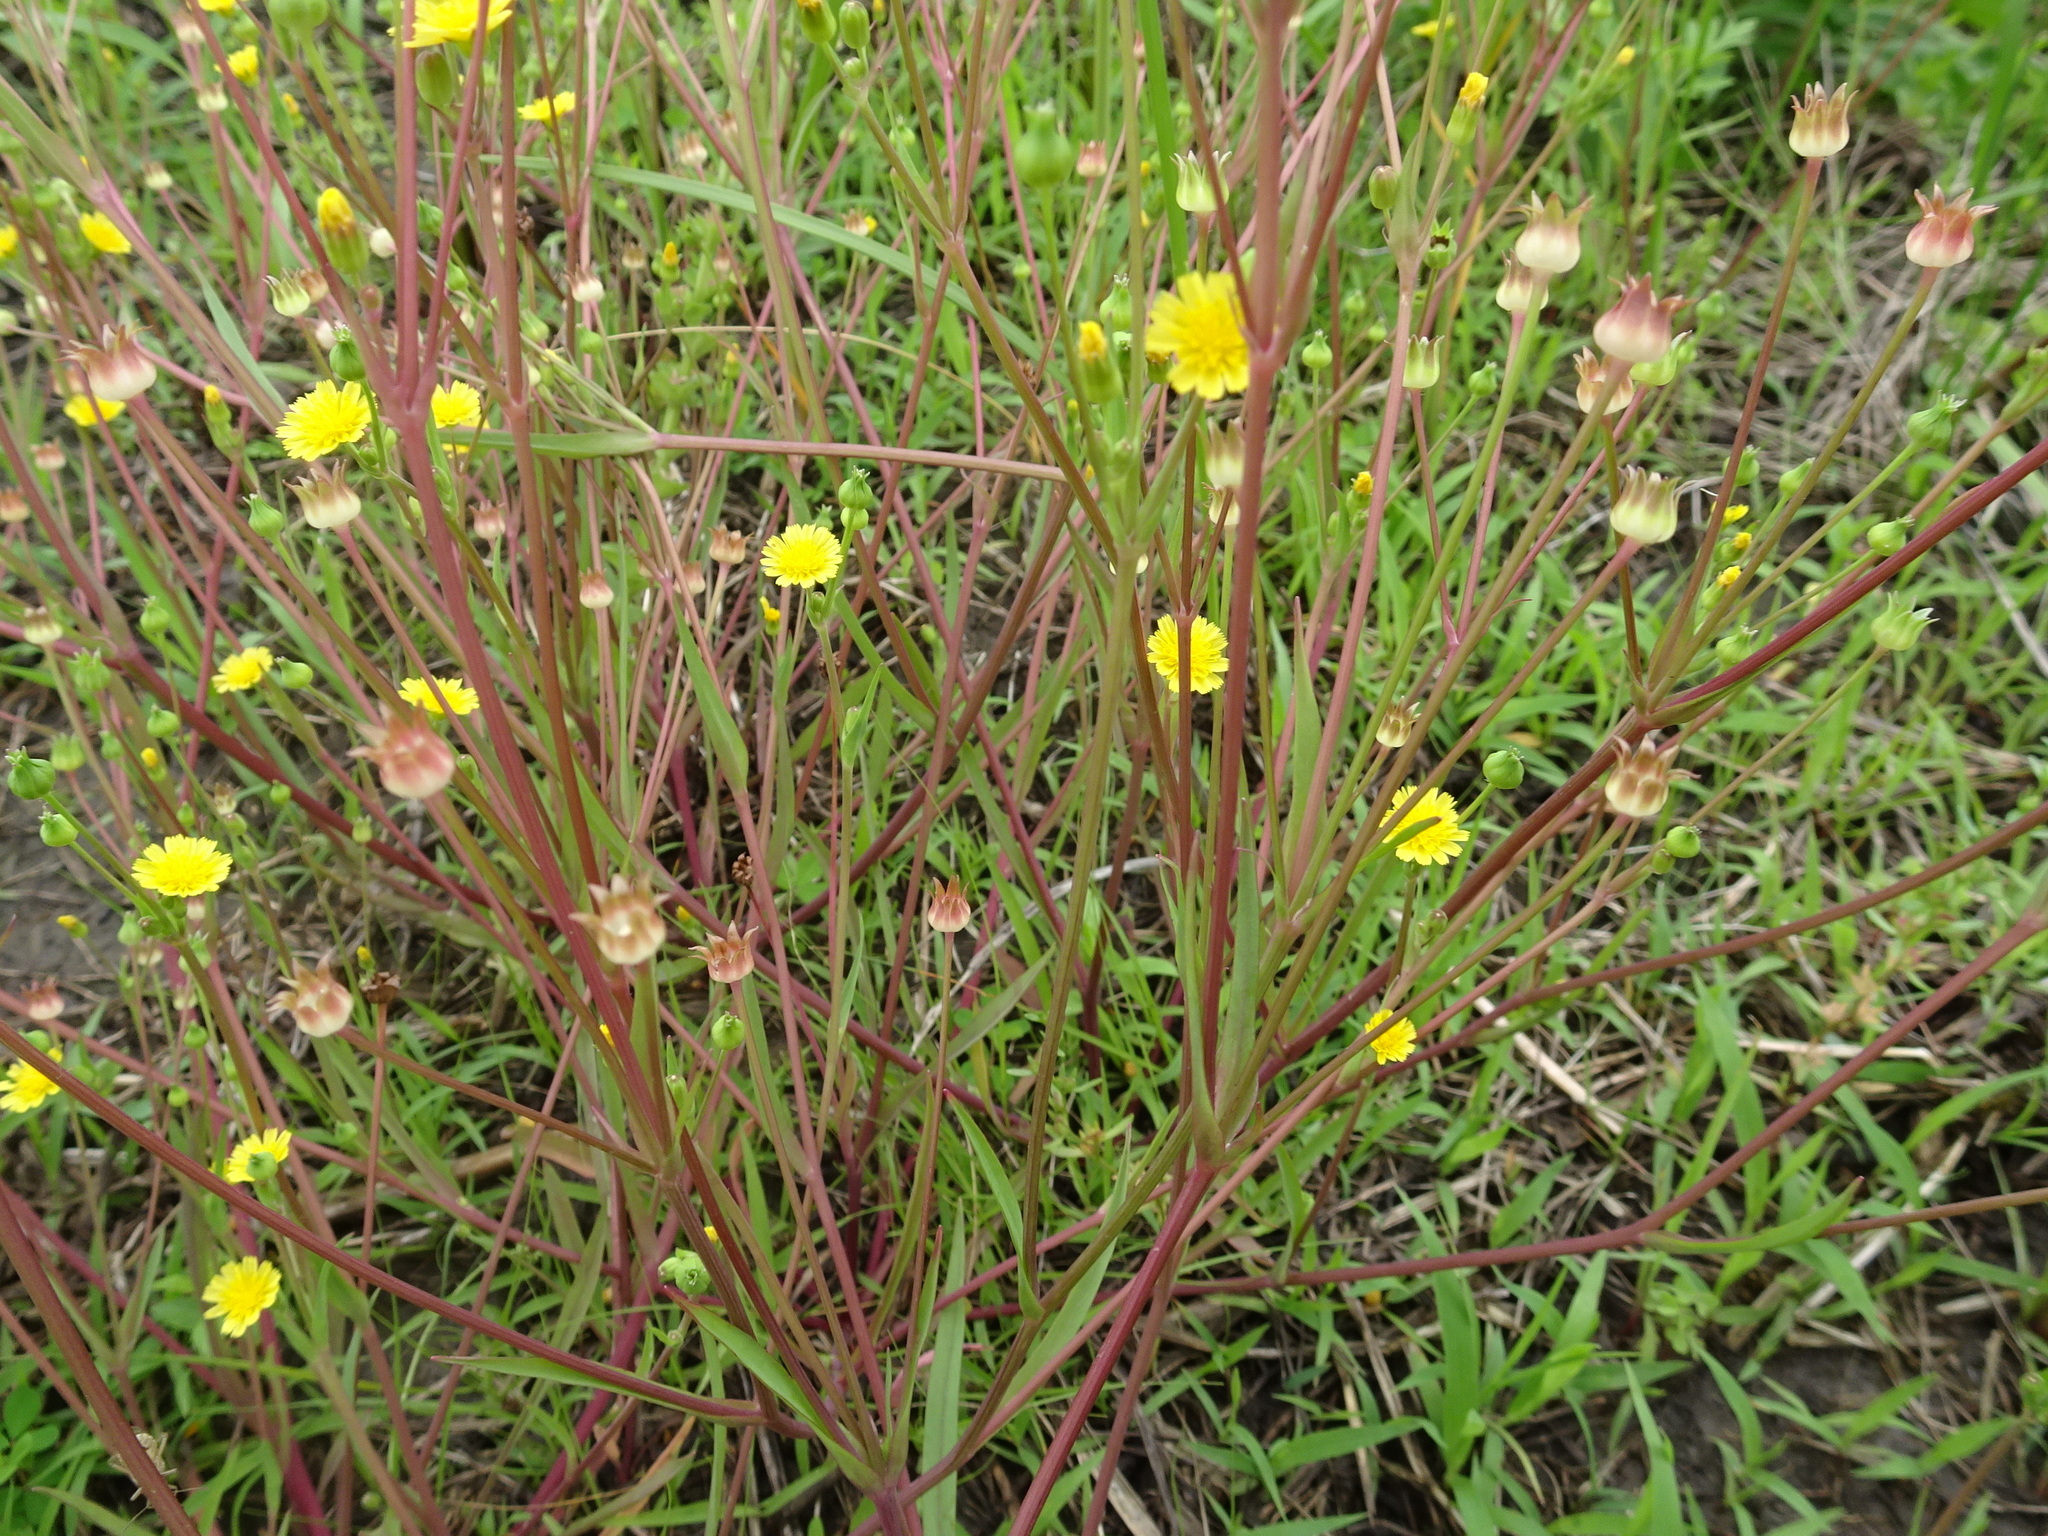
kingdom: Plantae
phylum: Tracheophyta
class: Magnoliopsida
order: Asterales
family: Asteraceae
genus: Krigia
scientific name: Krigia cespitosa
